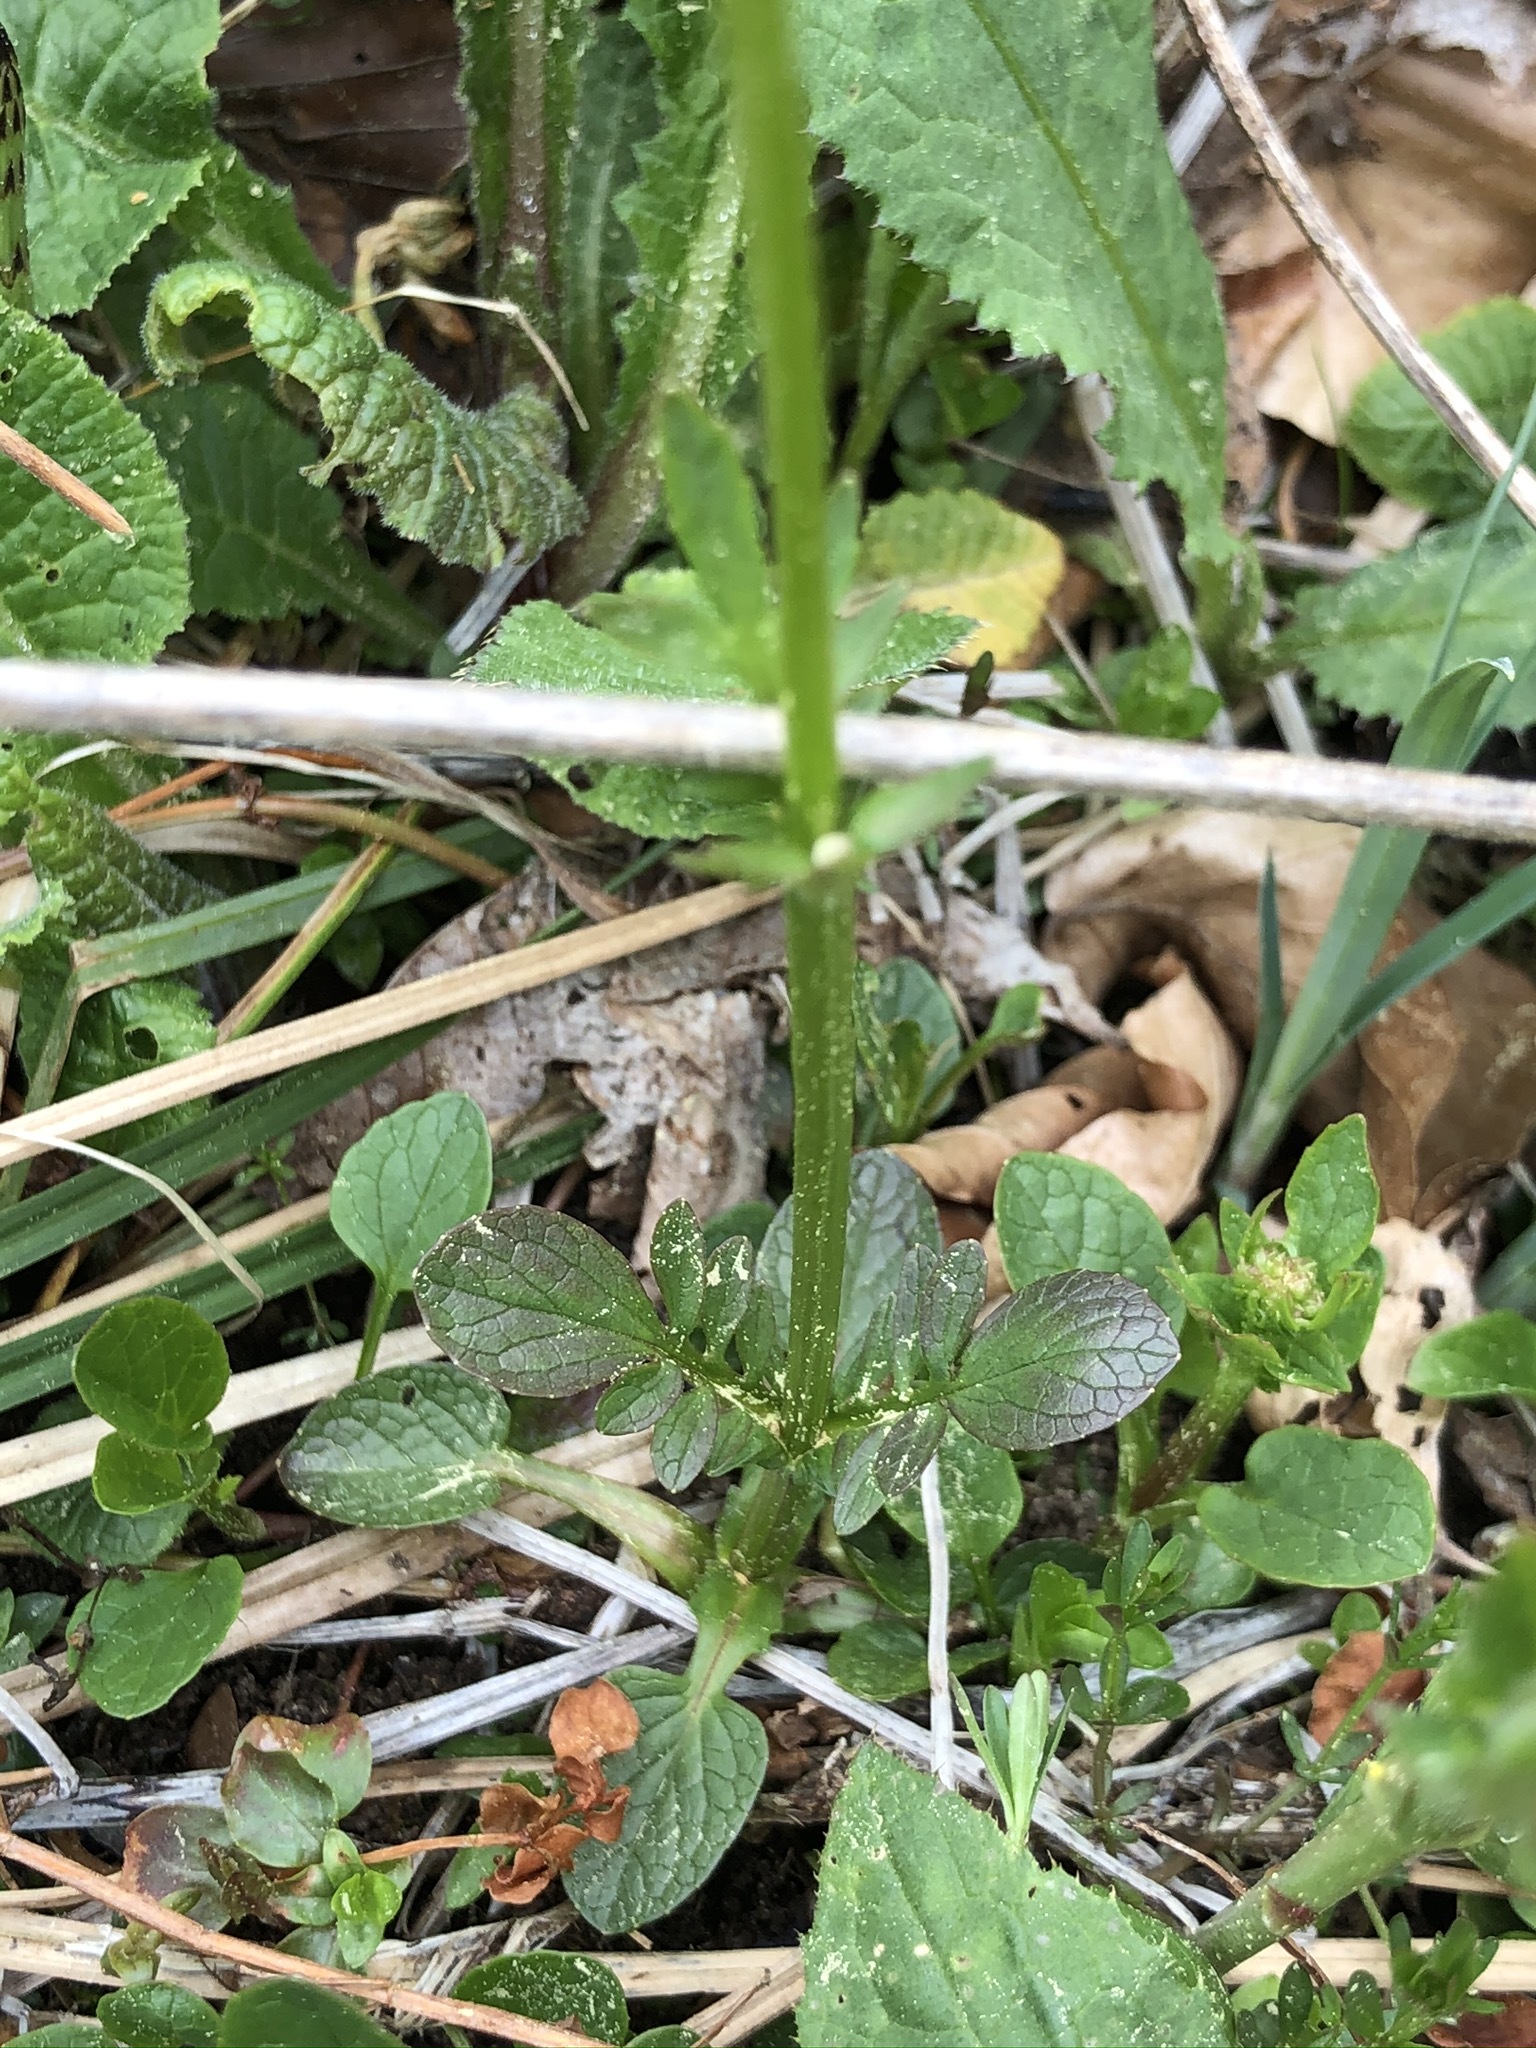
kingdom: Plantae
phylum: Tracheophyta
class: Magnoliopsida
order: Dipsacales
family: Caprifoliaceae
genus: Valeriana
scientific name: Valeriana dioica
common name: Marsh valerian
